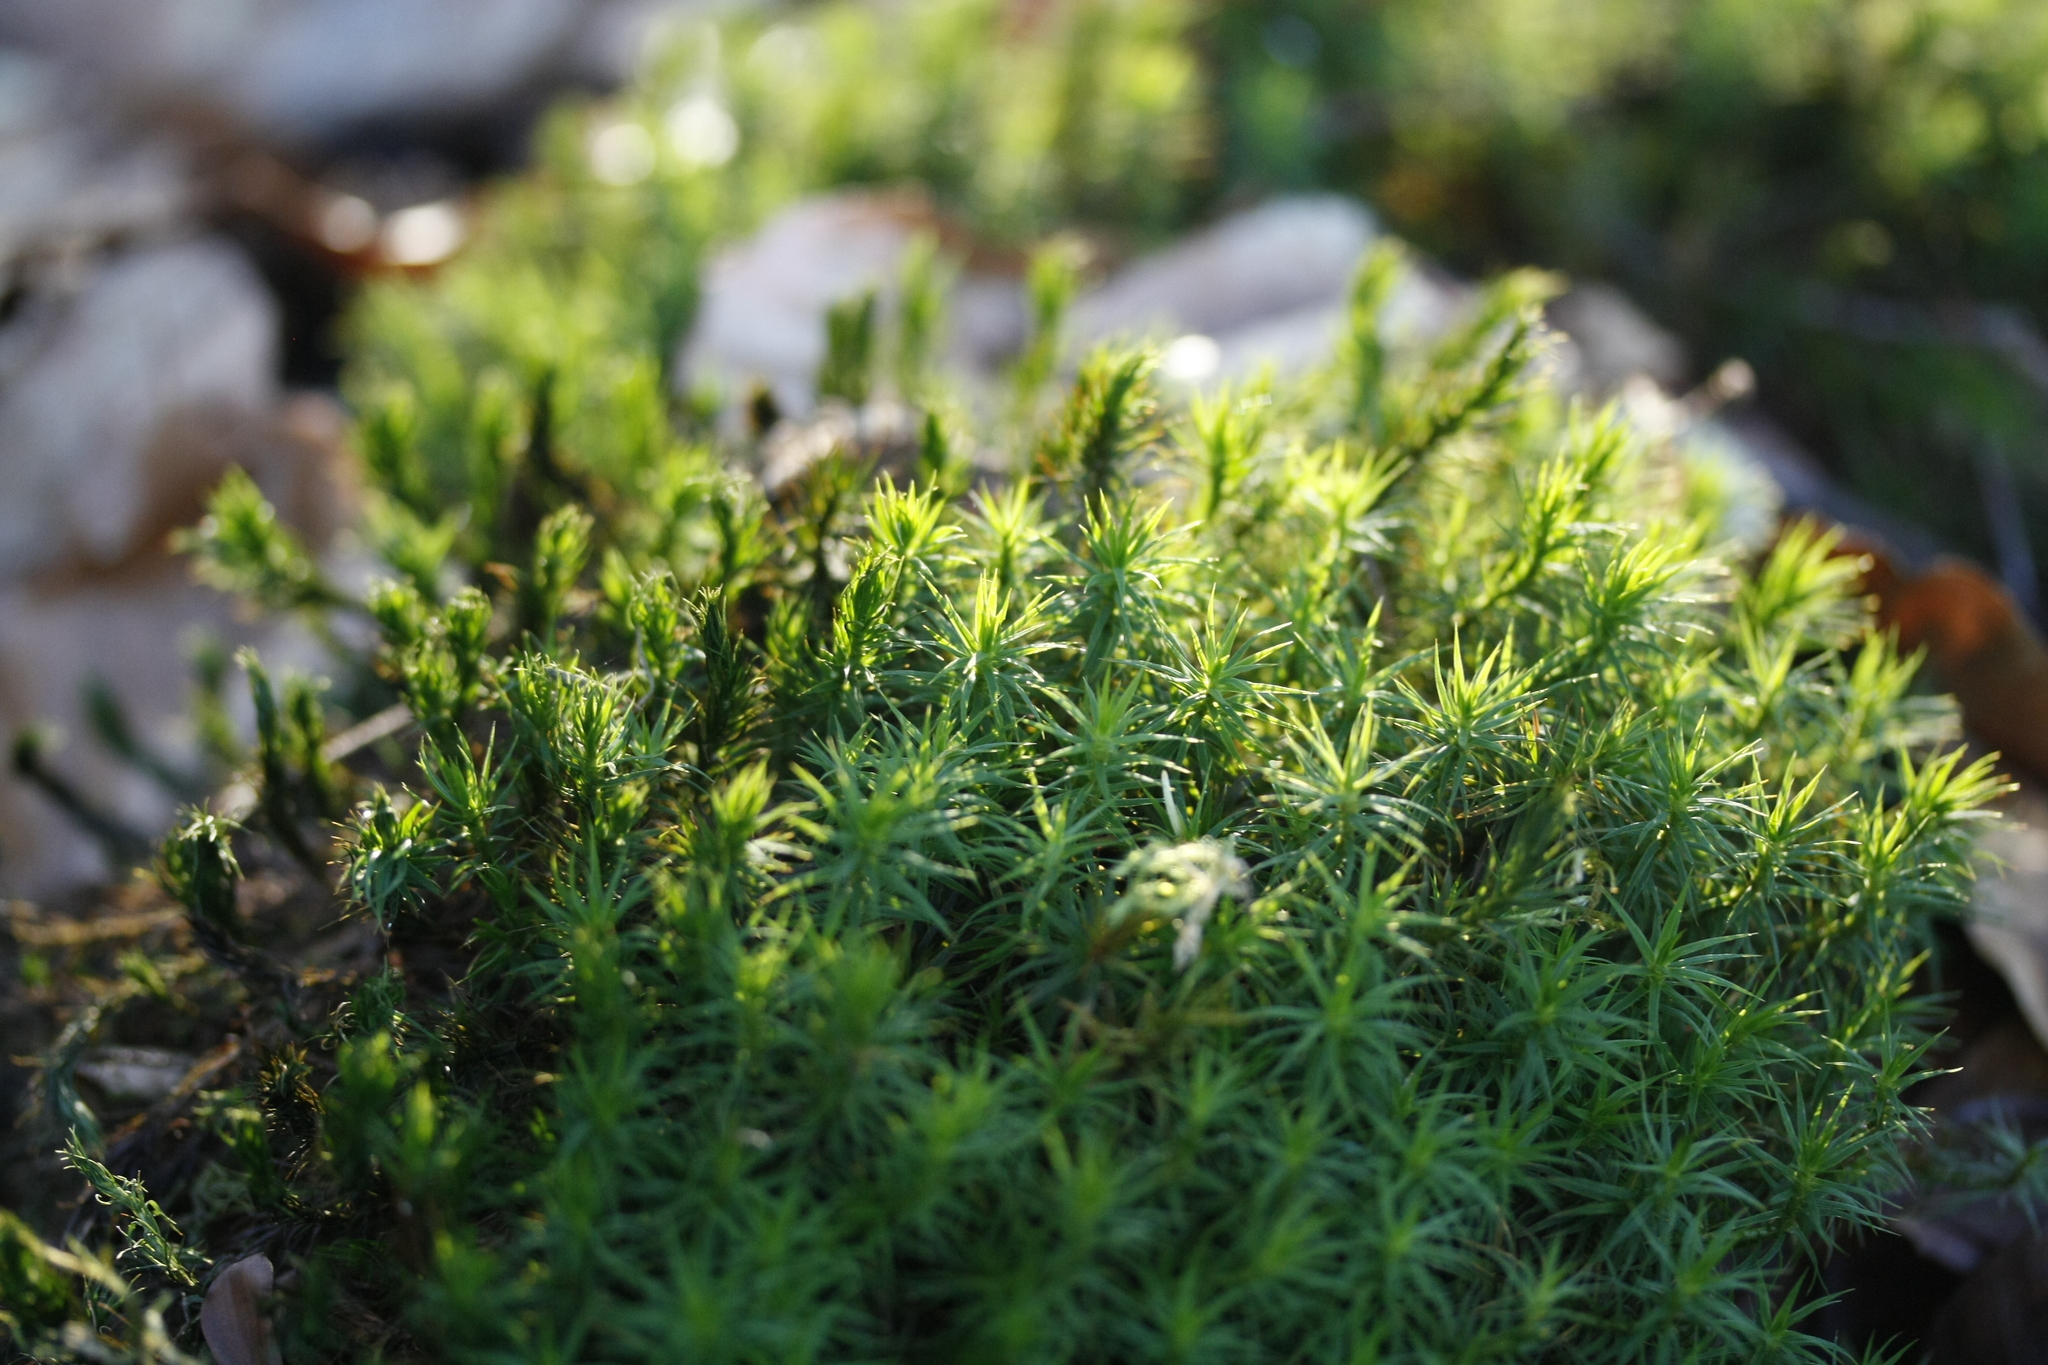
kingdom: Plantae
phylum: Bryophyta
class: Polytrichopsida
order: Polytrichales
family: Polytrichaceae
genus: Polytrichum
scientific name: Polytrichum formosum
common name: Bank haircap moss
